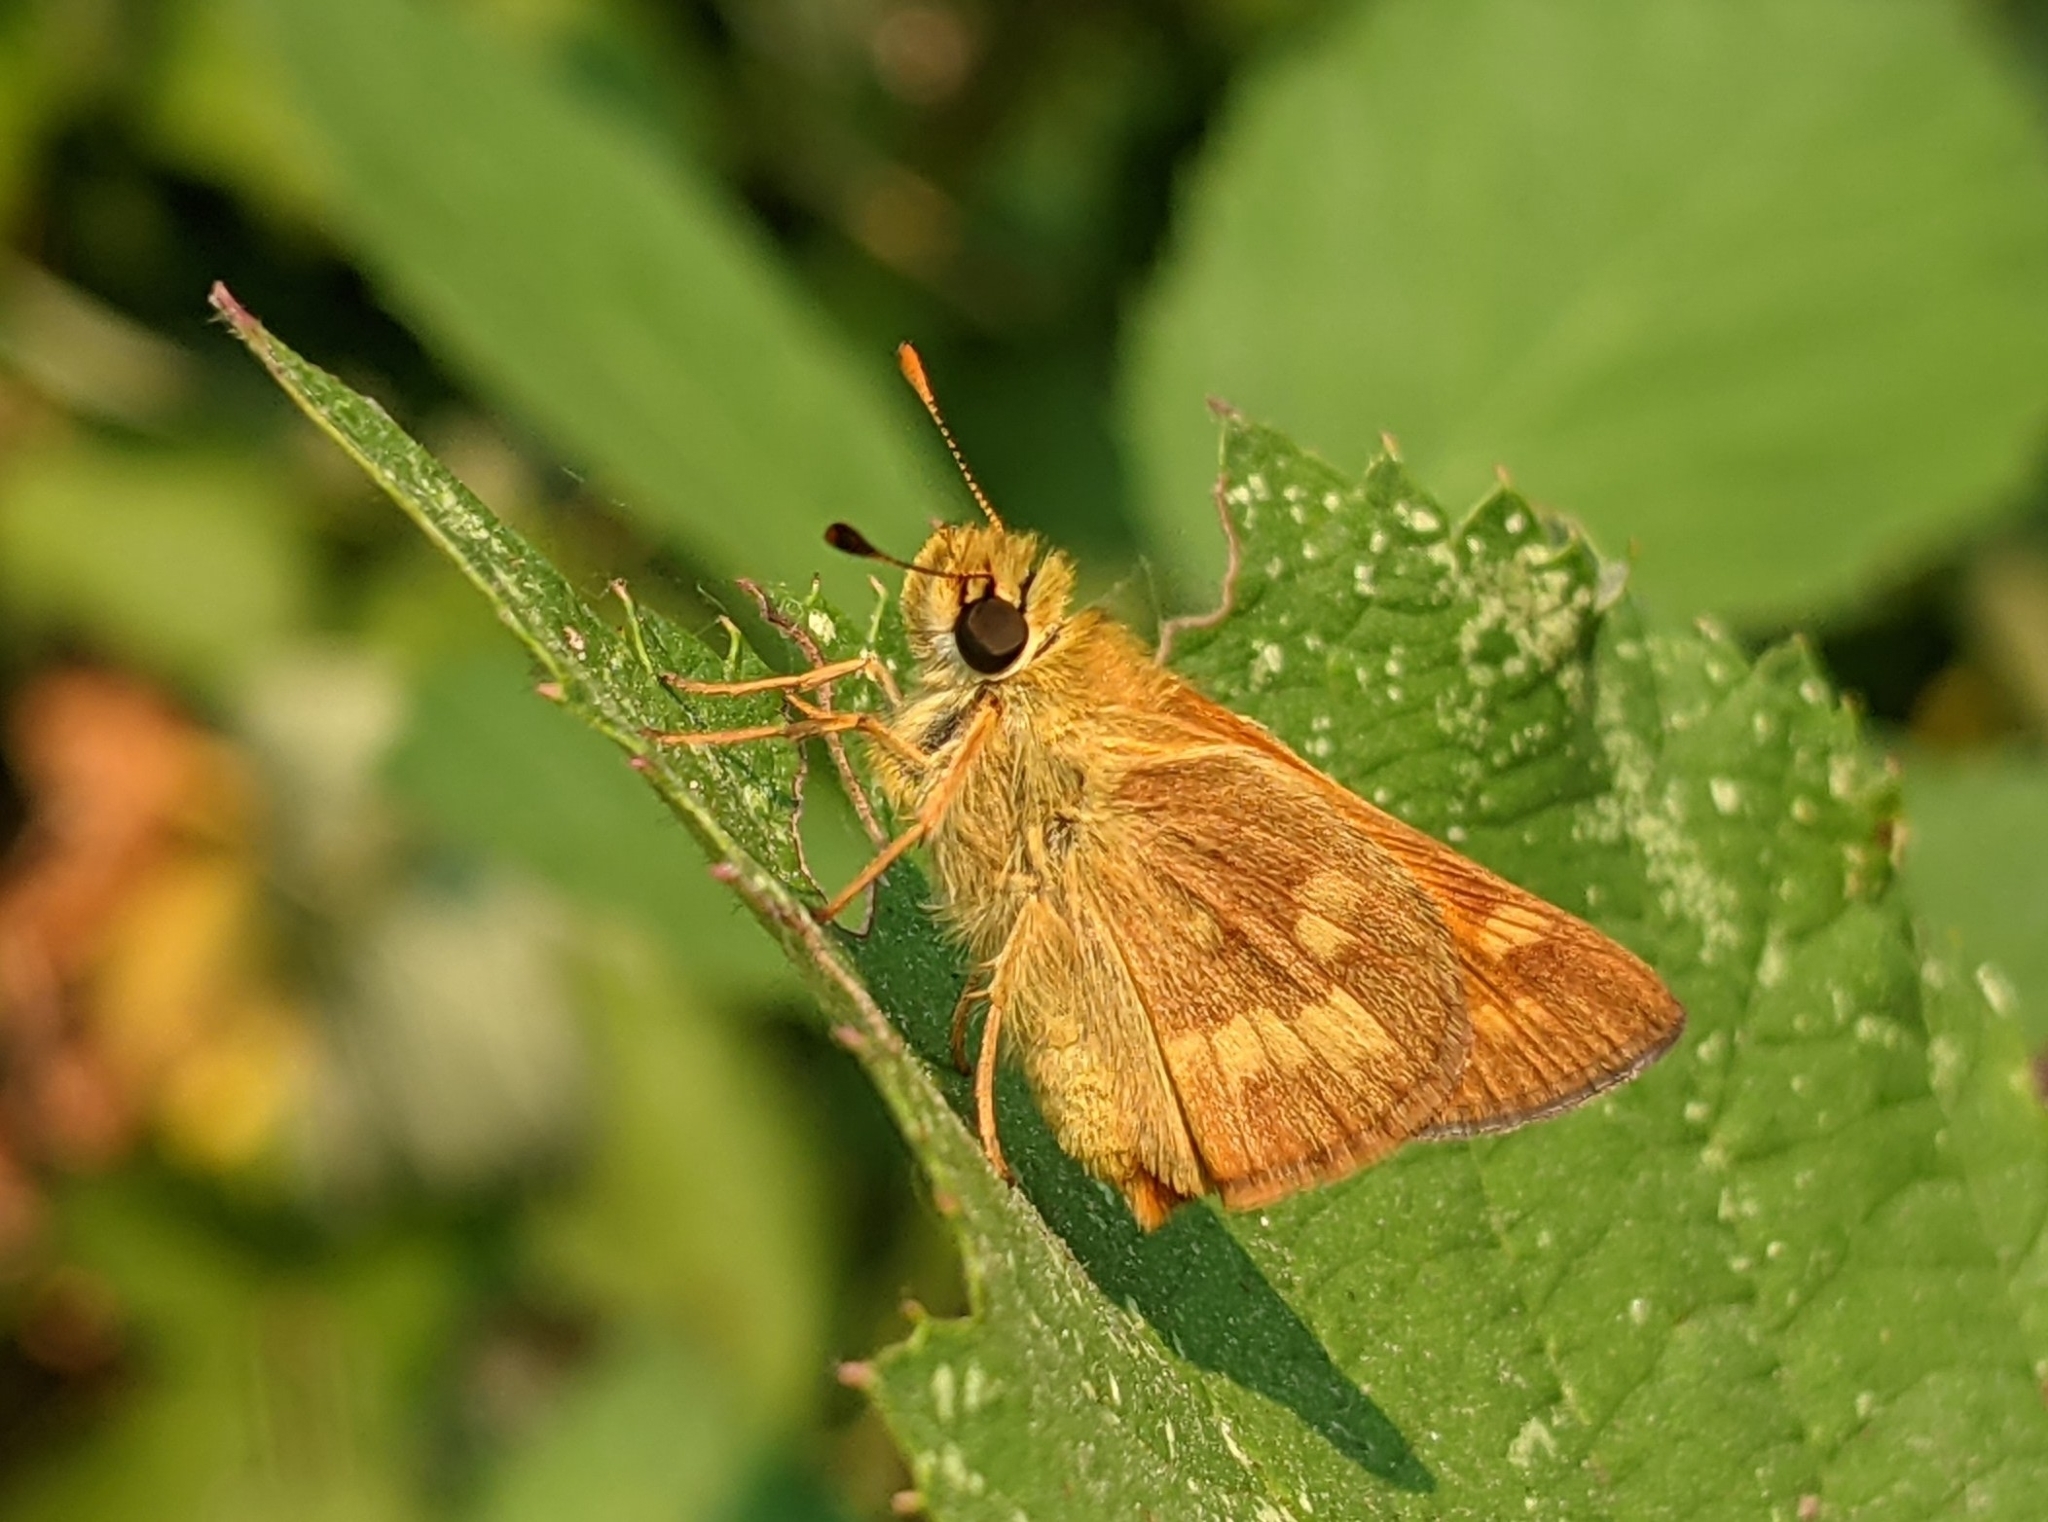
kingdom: Animalia
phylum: Arthropoda
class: Insecta
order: Lepidoptera
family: Hesperiidae
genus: Ochlodes
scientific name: Ochlodes sylvanoides
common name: Woodland skipper
